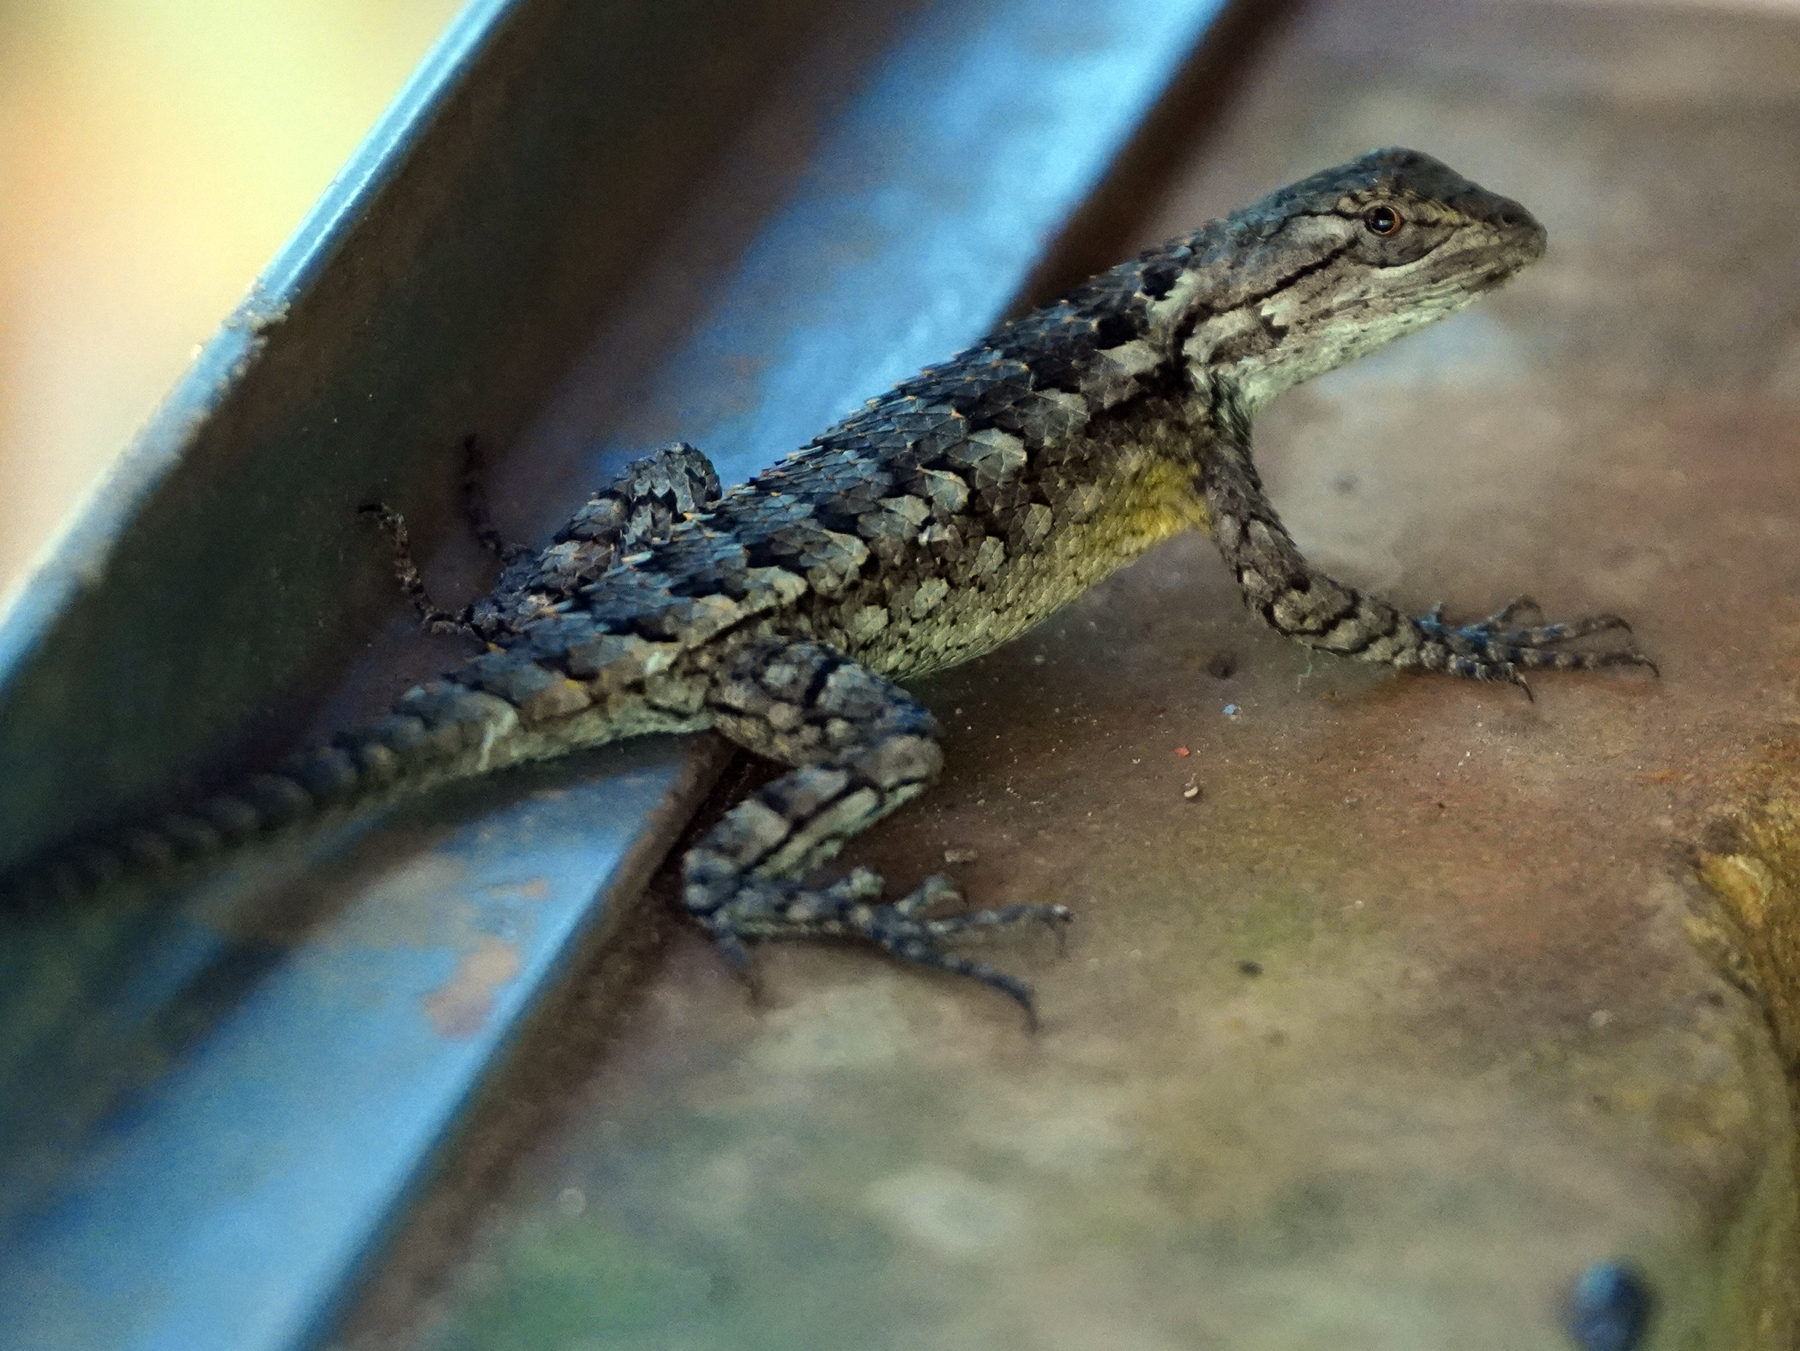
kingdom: Animalia
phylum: Chordata
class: Squamata
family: Phrynosomatidae
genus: Sceloporus
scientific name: Sceloporus olivaceus
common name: Texas spiny lizard
